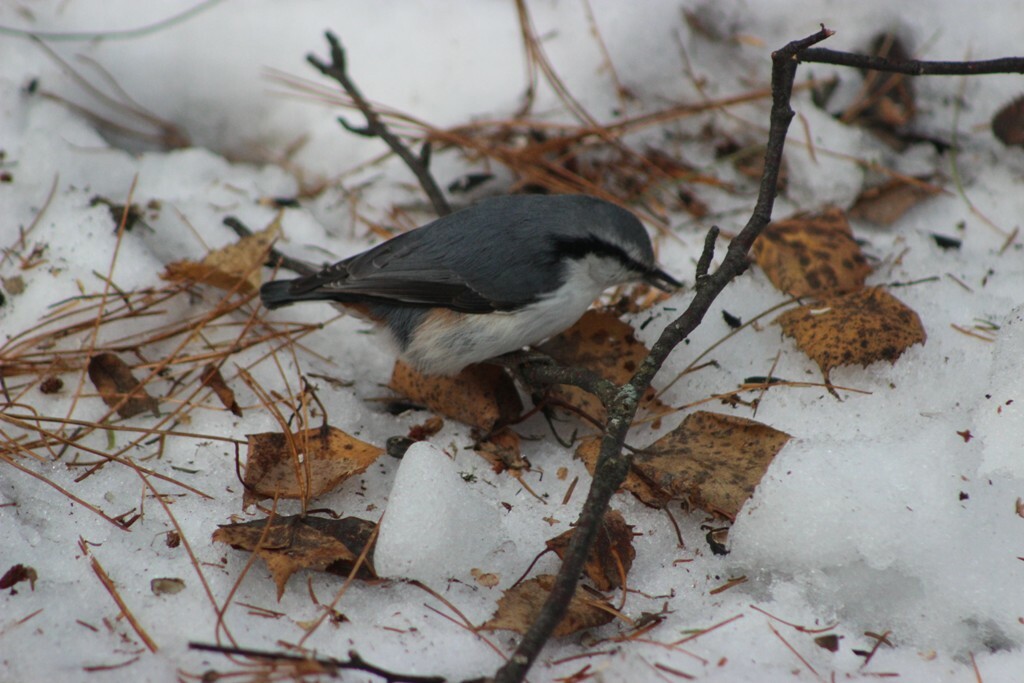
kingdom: Animalia
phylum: Chordata
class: Aves
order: Passeriformes
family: Sittidae
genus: Sitta
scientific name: Sitta europaea
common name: Eurasian nuthatch
